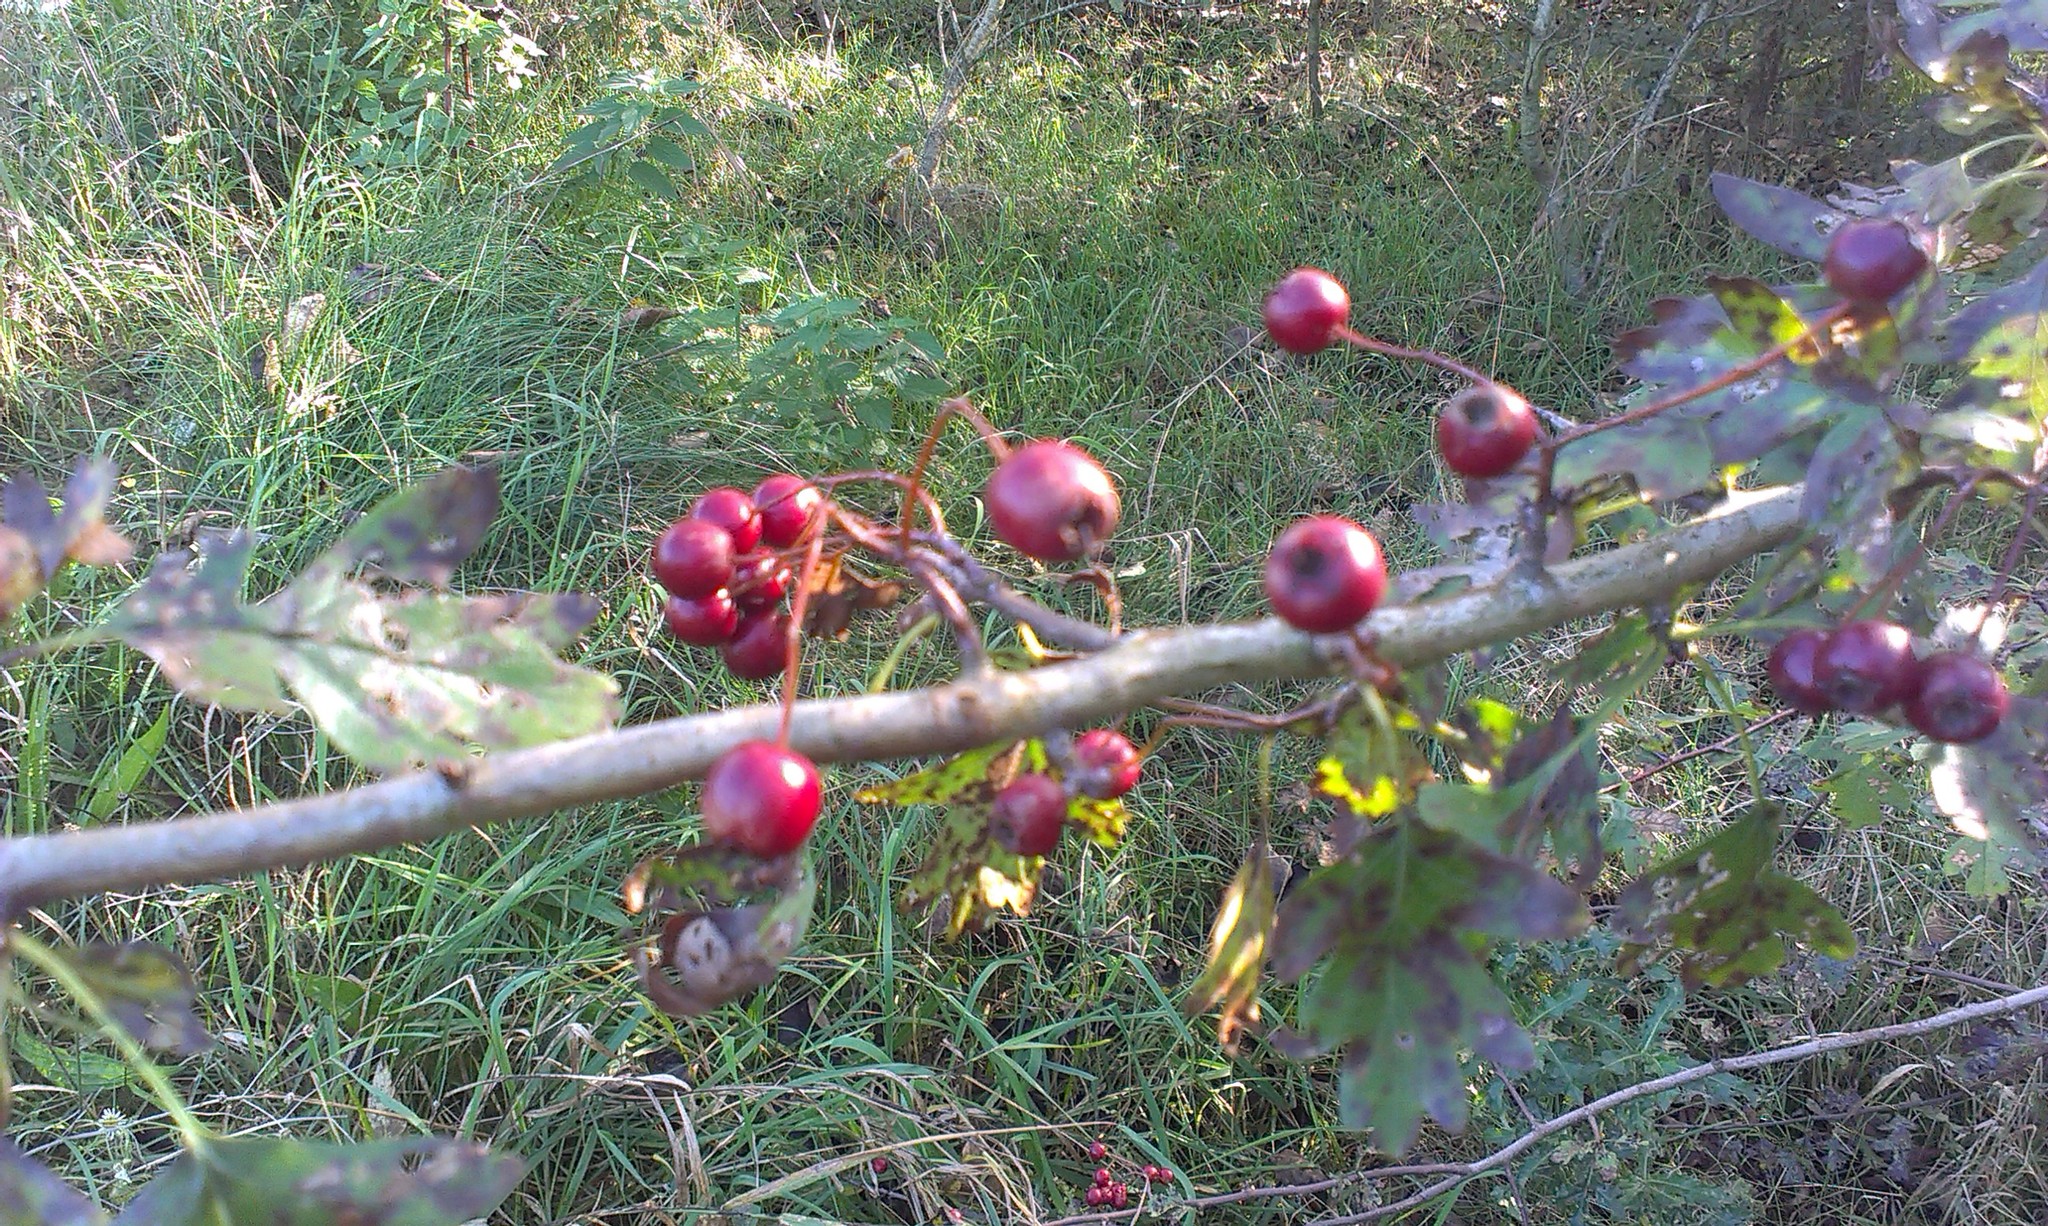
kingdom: Plantae
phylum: Tracheophyta
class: Magnoliopsida
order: Rosales
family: Rosaceae
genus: Crataegus
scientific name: Crataegus monogyna
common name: Hawthorn
